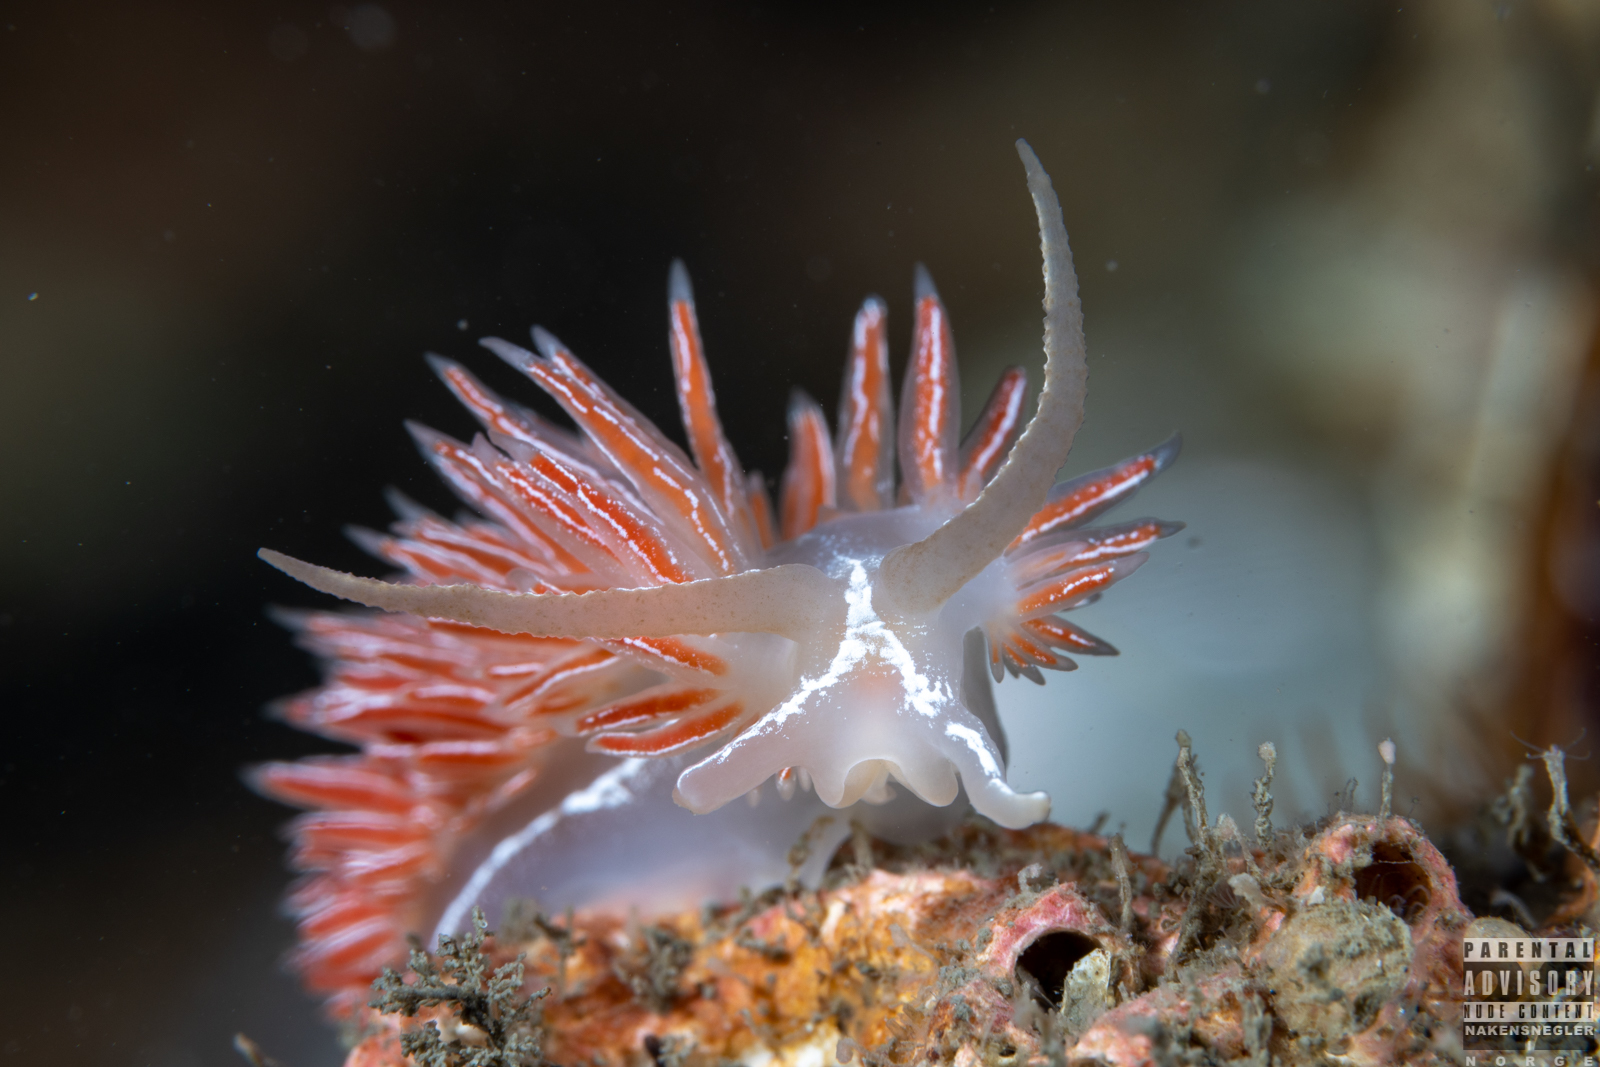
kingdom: Animalia
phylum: Mollusca
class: Gastropoda
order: Nudibranchia
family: Coryphellidae
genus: Coryphella
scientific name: Coryphella chriskaugei
